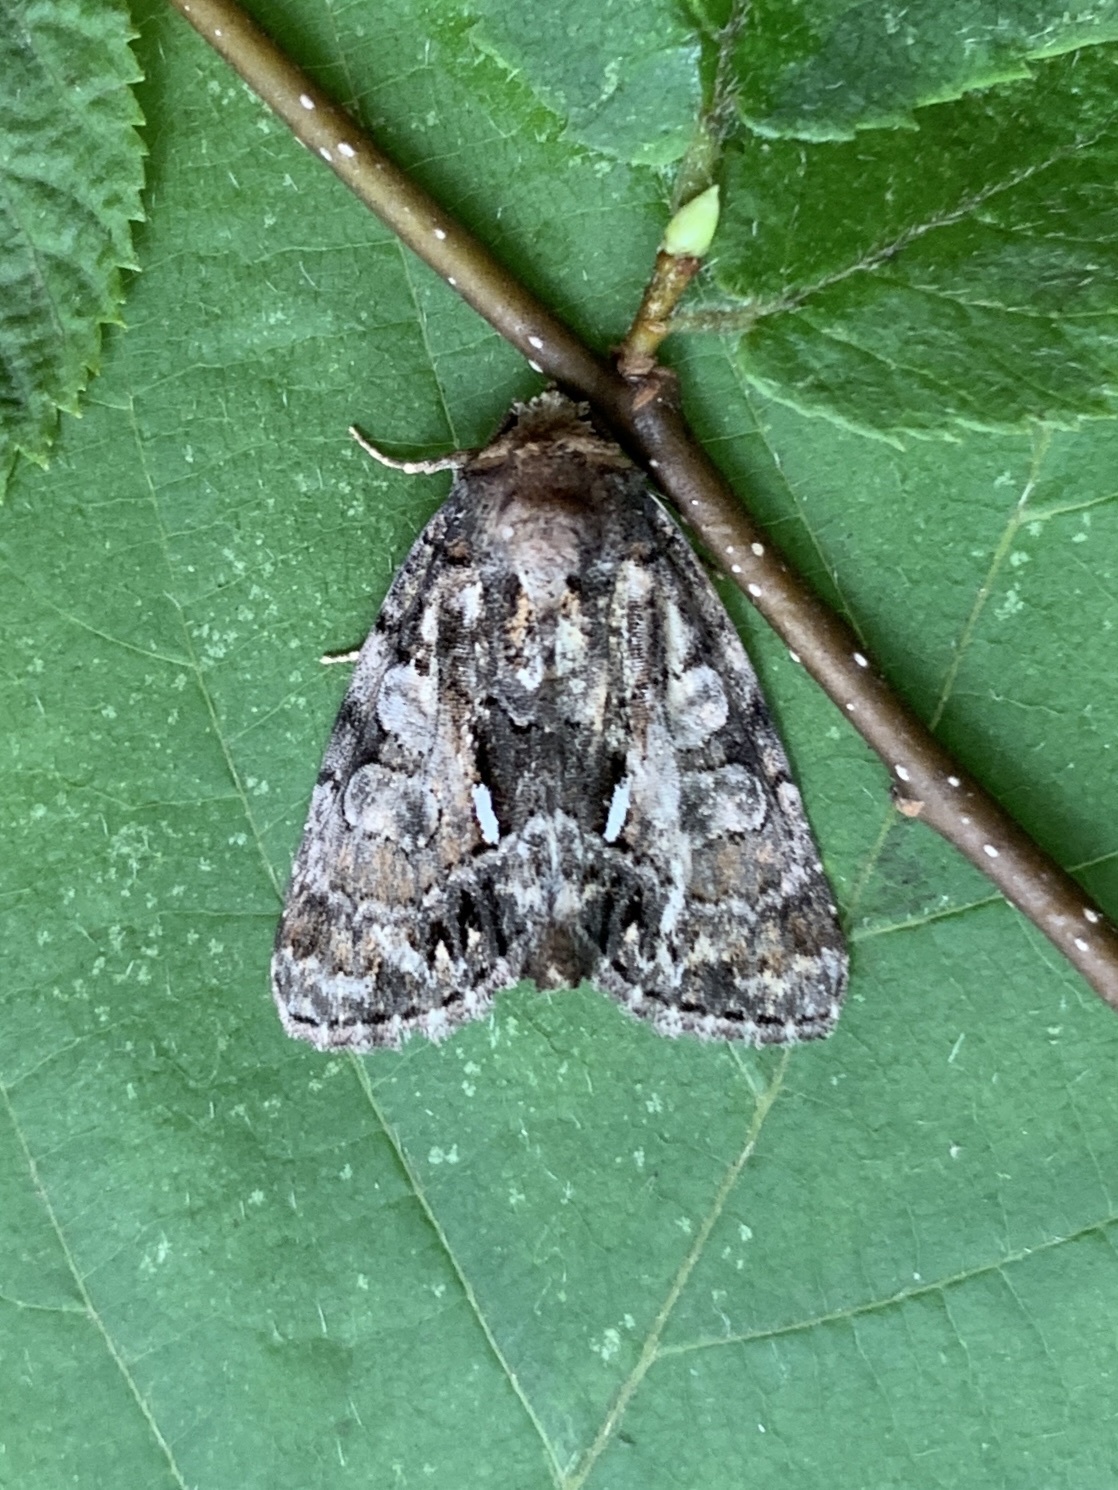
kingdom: Animalia
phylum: Arthropoda
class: Insecta
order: Lepidoptera
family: Noctuidae
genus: Chytonix
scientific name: Chytonix palliatricula
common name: Cloaked marvel
